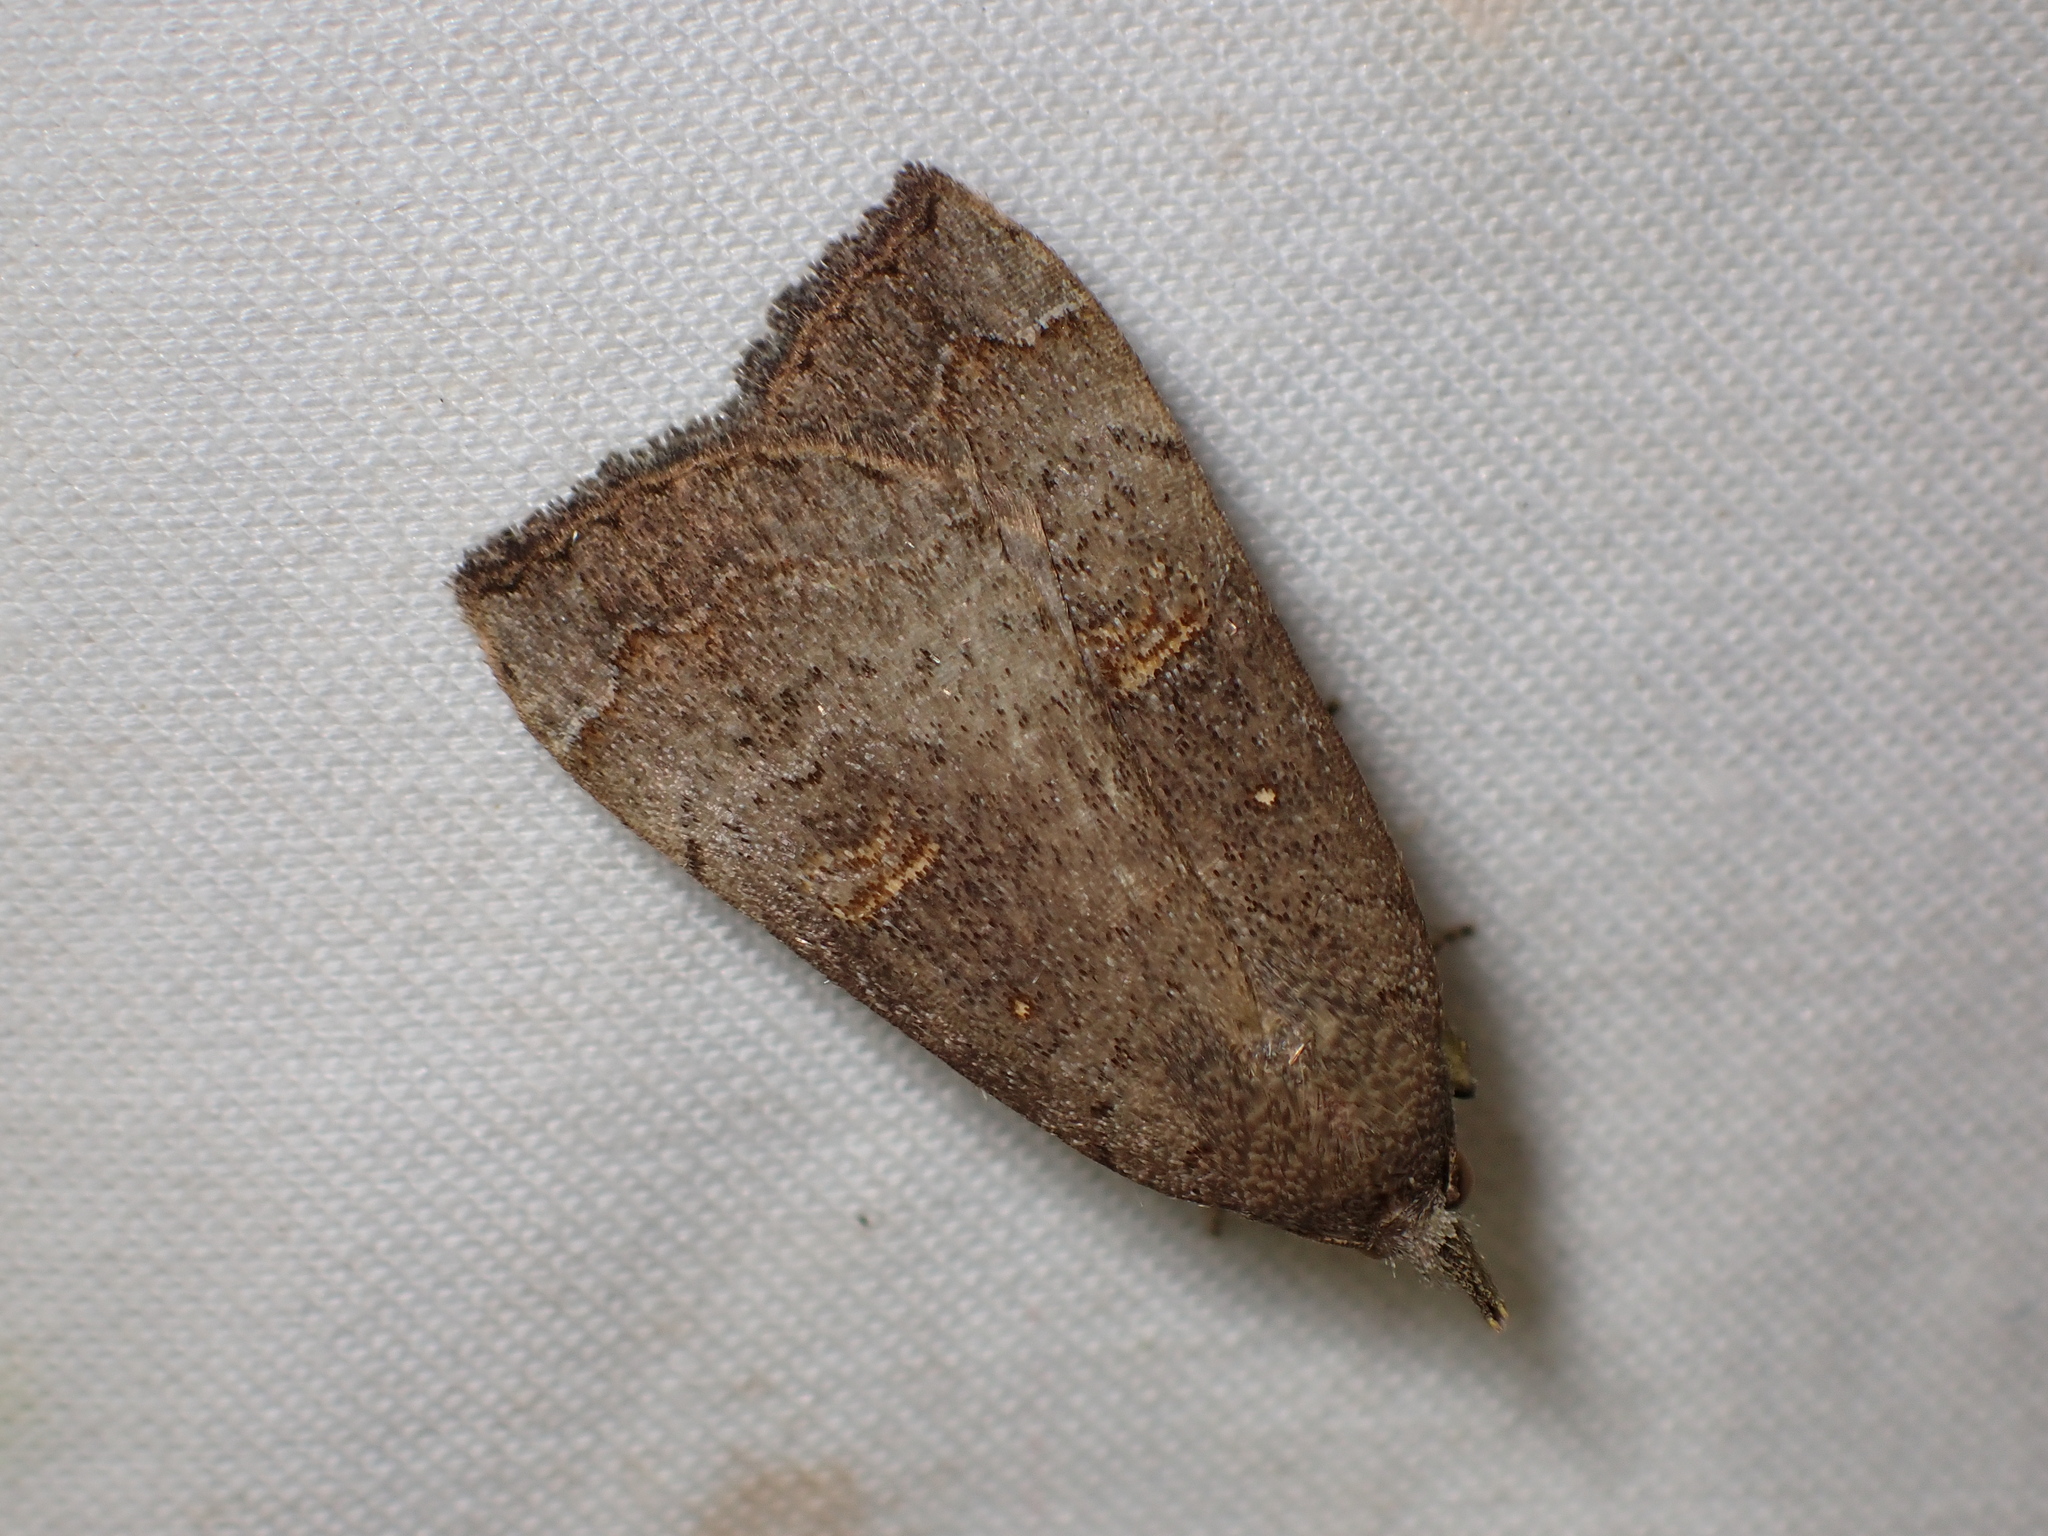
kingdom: Animalia
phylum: Arthropoda
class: Insecta
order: Lepidoptera
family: Erebidae
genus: Rhapsa
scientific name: Rhapsa scotosialis
